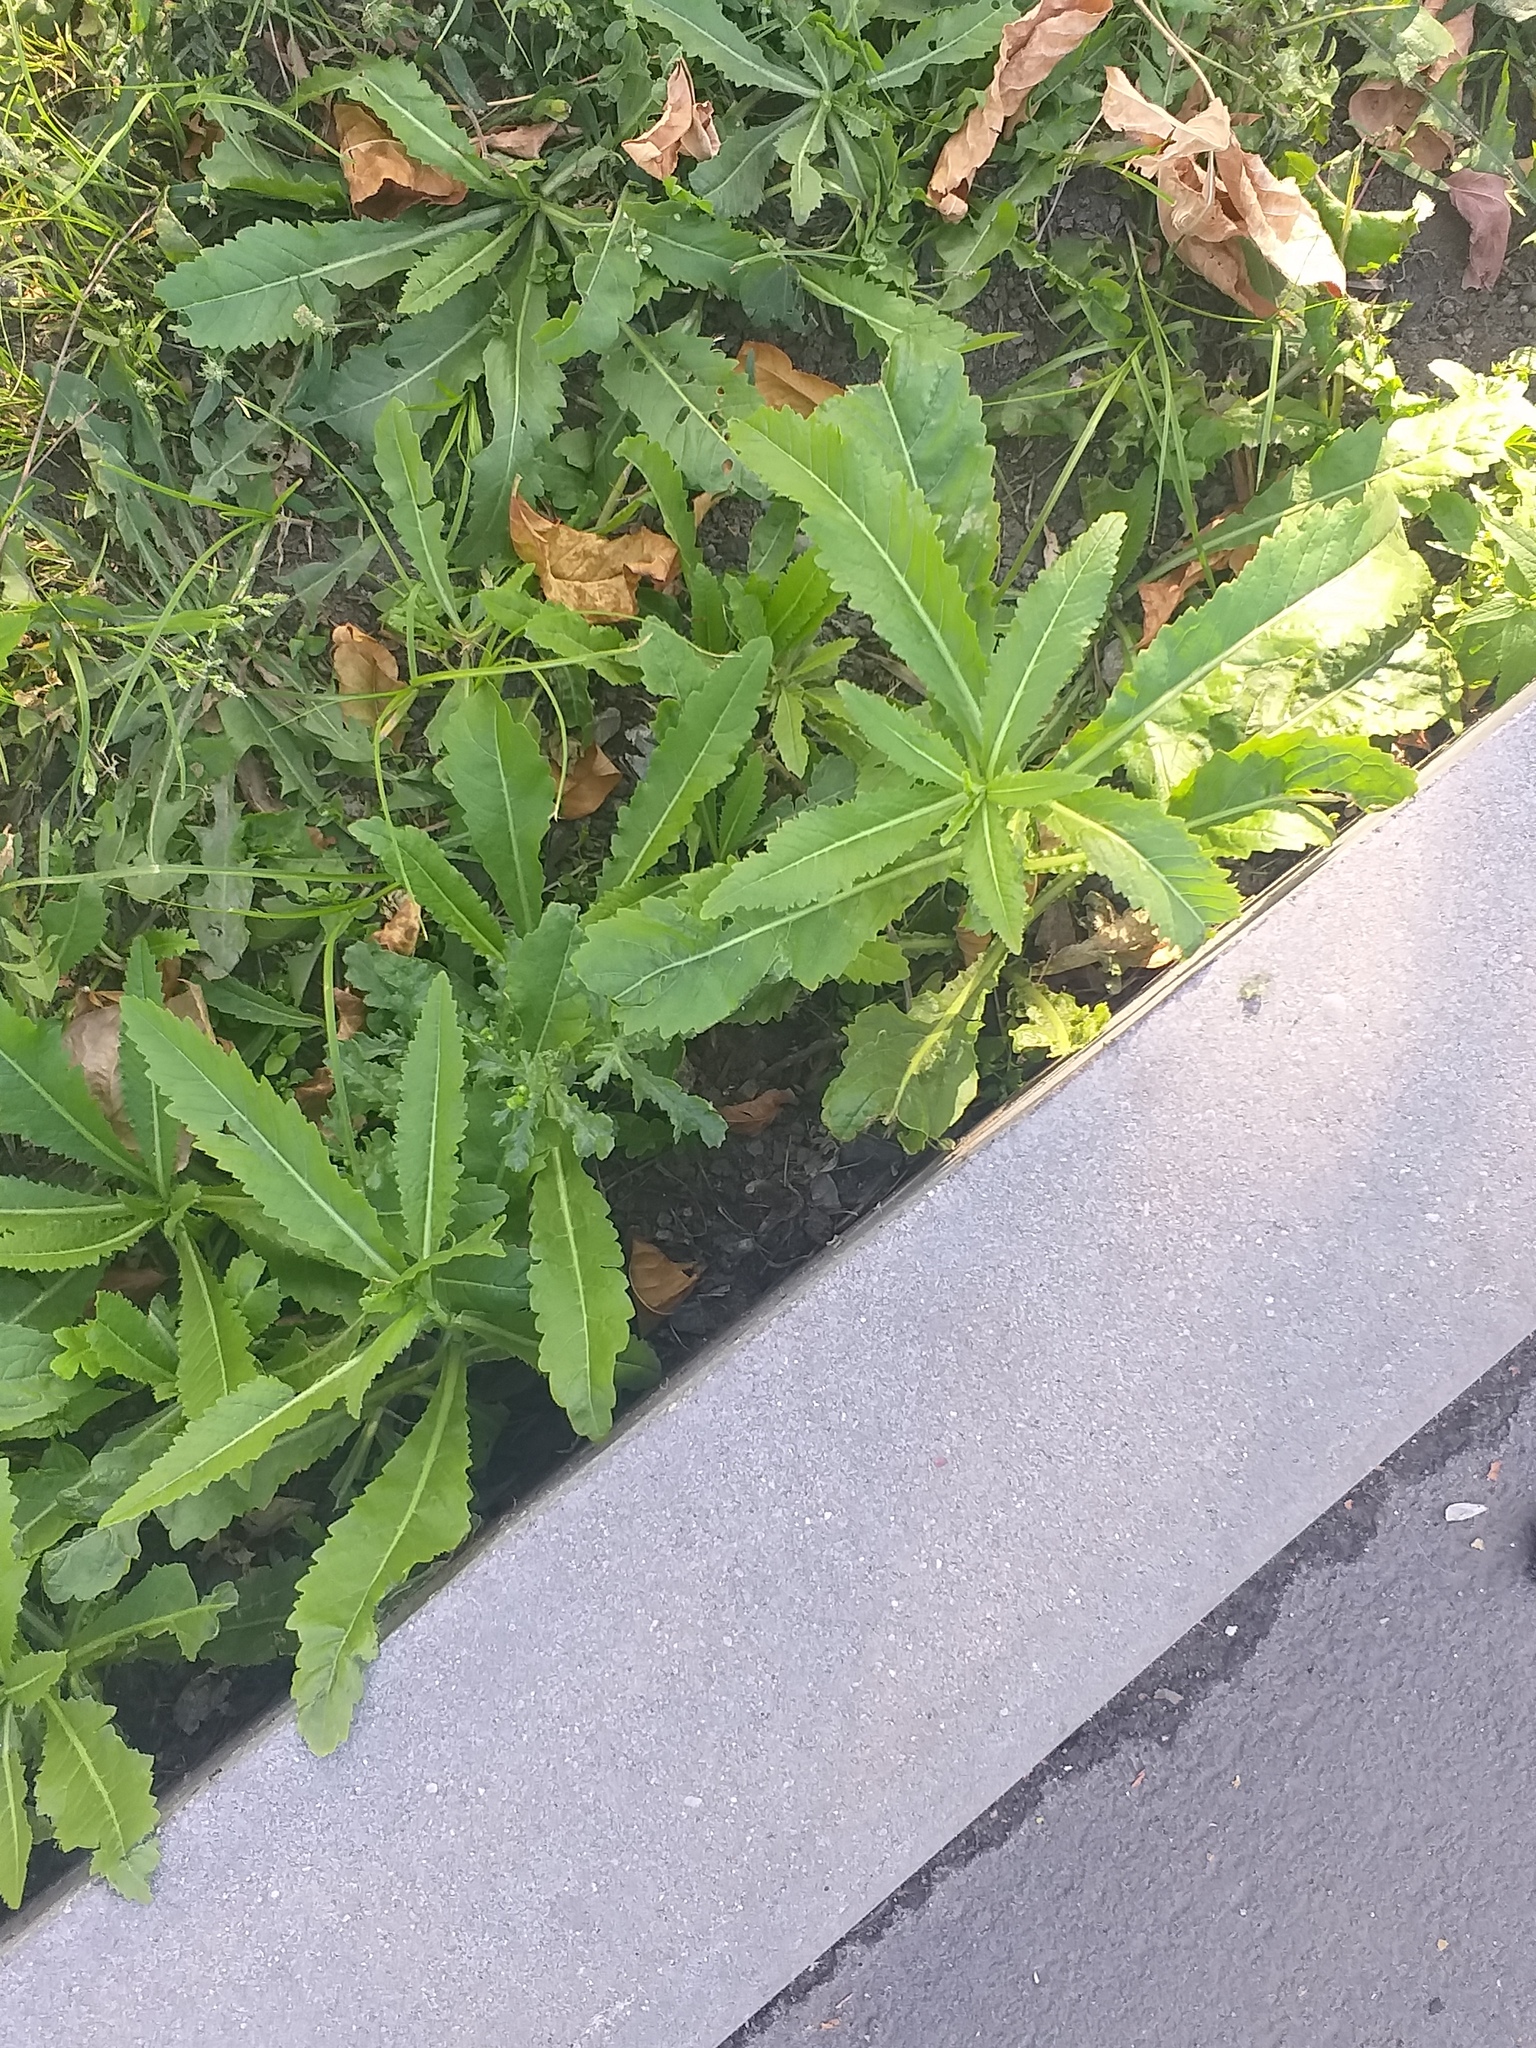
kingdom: Plantae
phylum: Tracheophyta
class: Magnoliopsida
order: Brassicales
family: Brassicaceae
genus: Rorippa
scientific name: Rorippa austriaca
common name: Austrian yellow-cress
